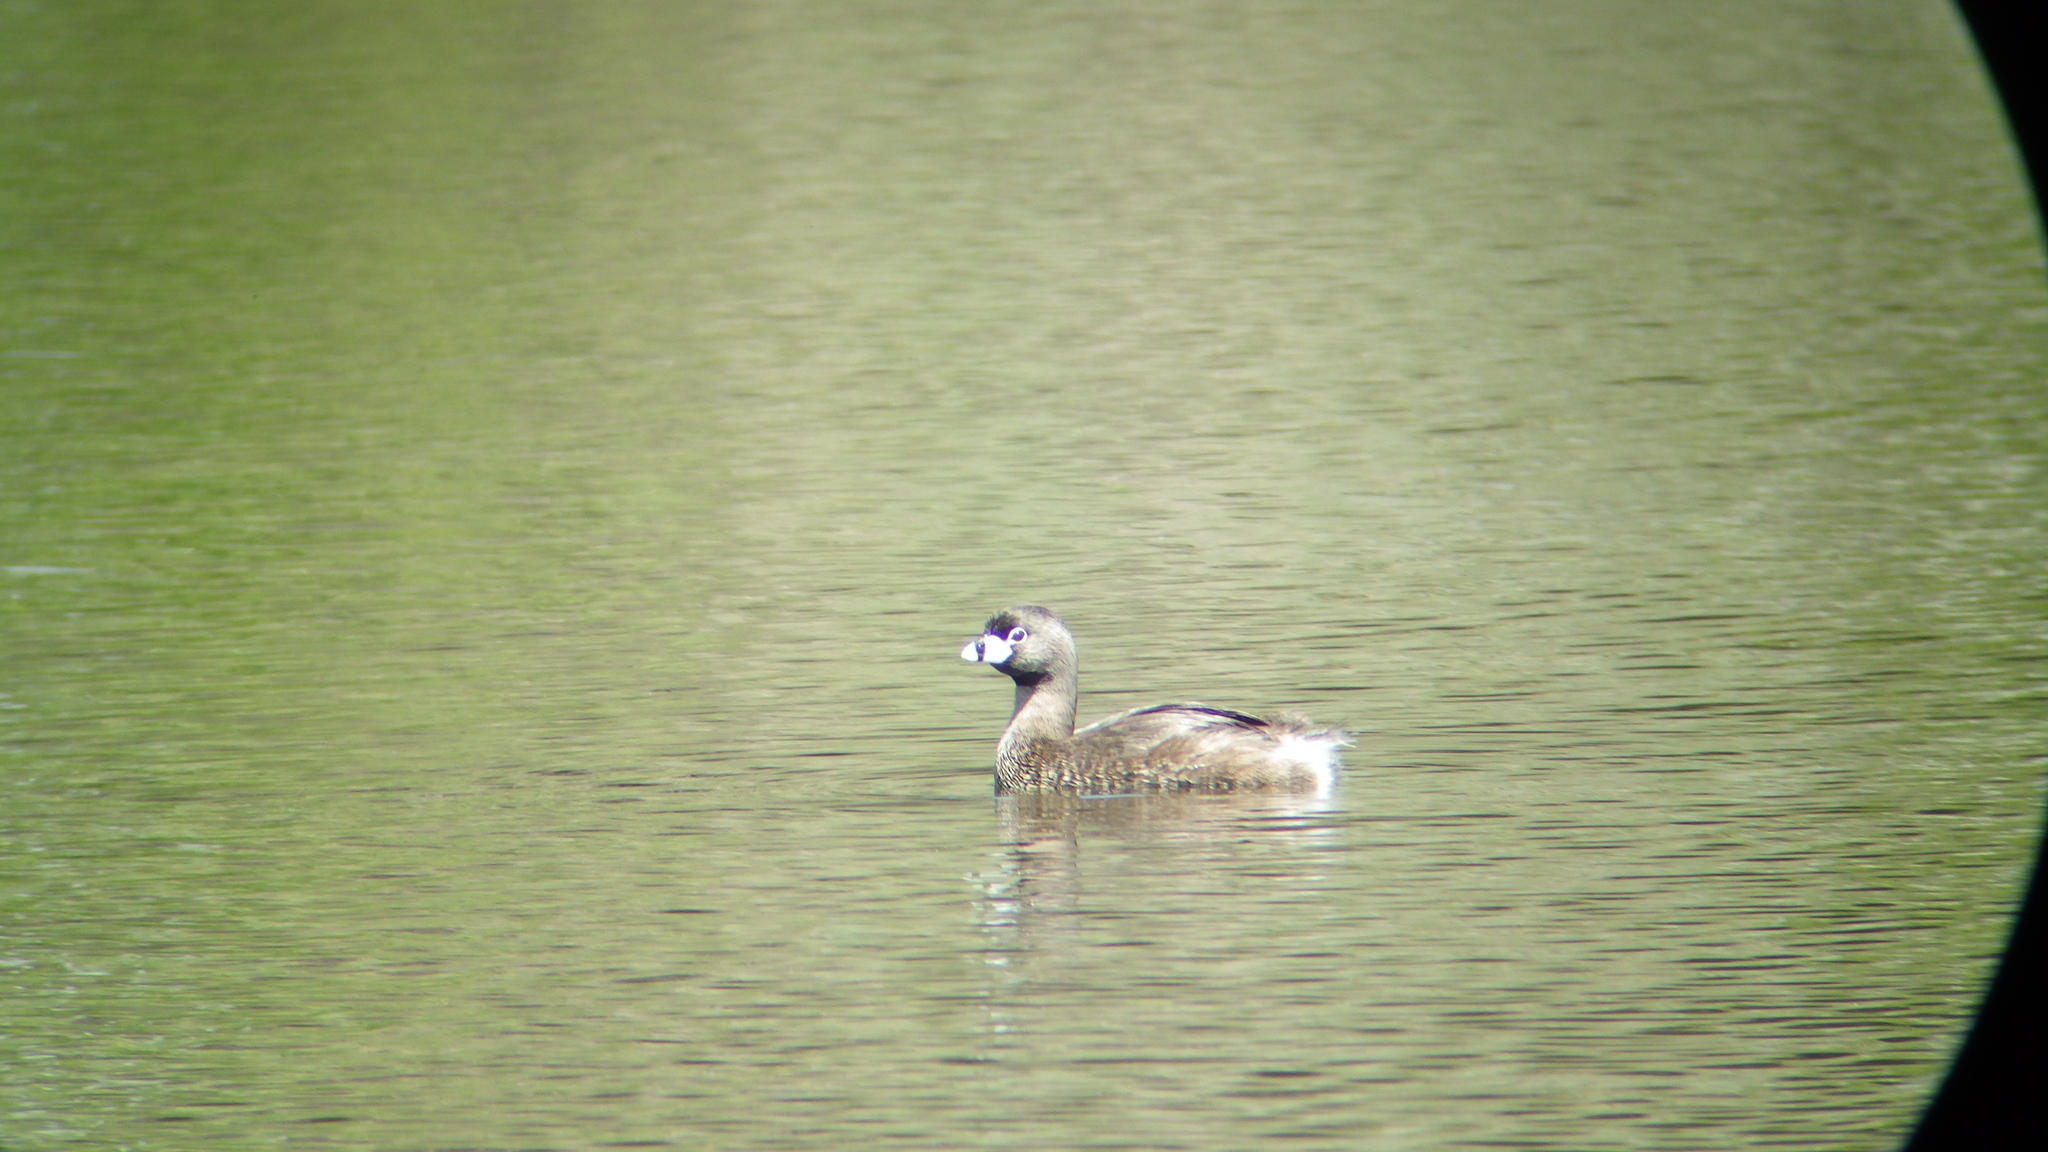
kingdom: Animalia
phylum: Chordata
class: Aves
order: Podicipediformes
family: Podicipedidae
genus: Podilymbus
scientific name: Podilymbus podiceps
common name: Pied-billed grebe
